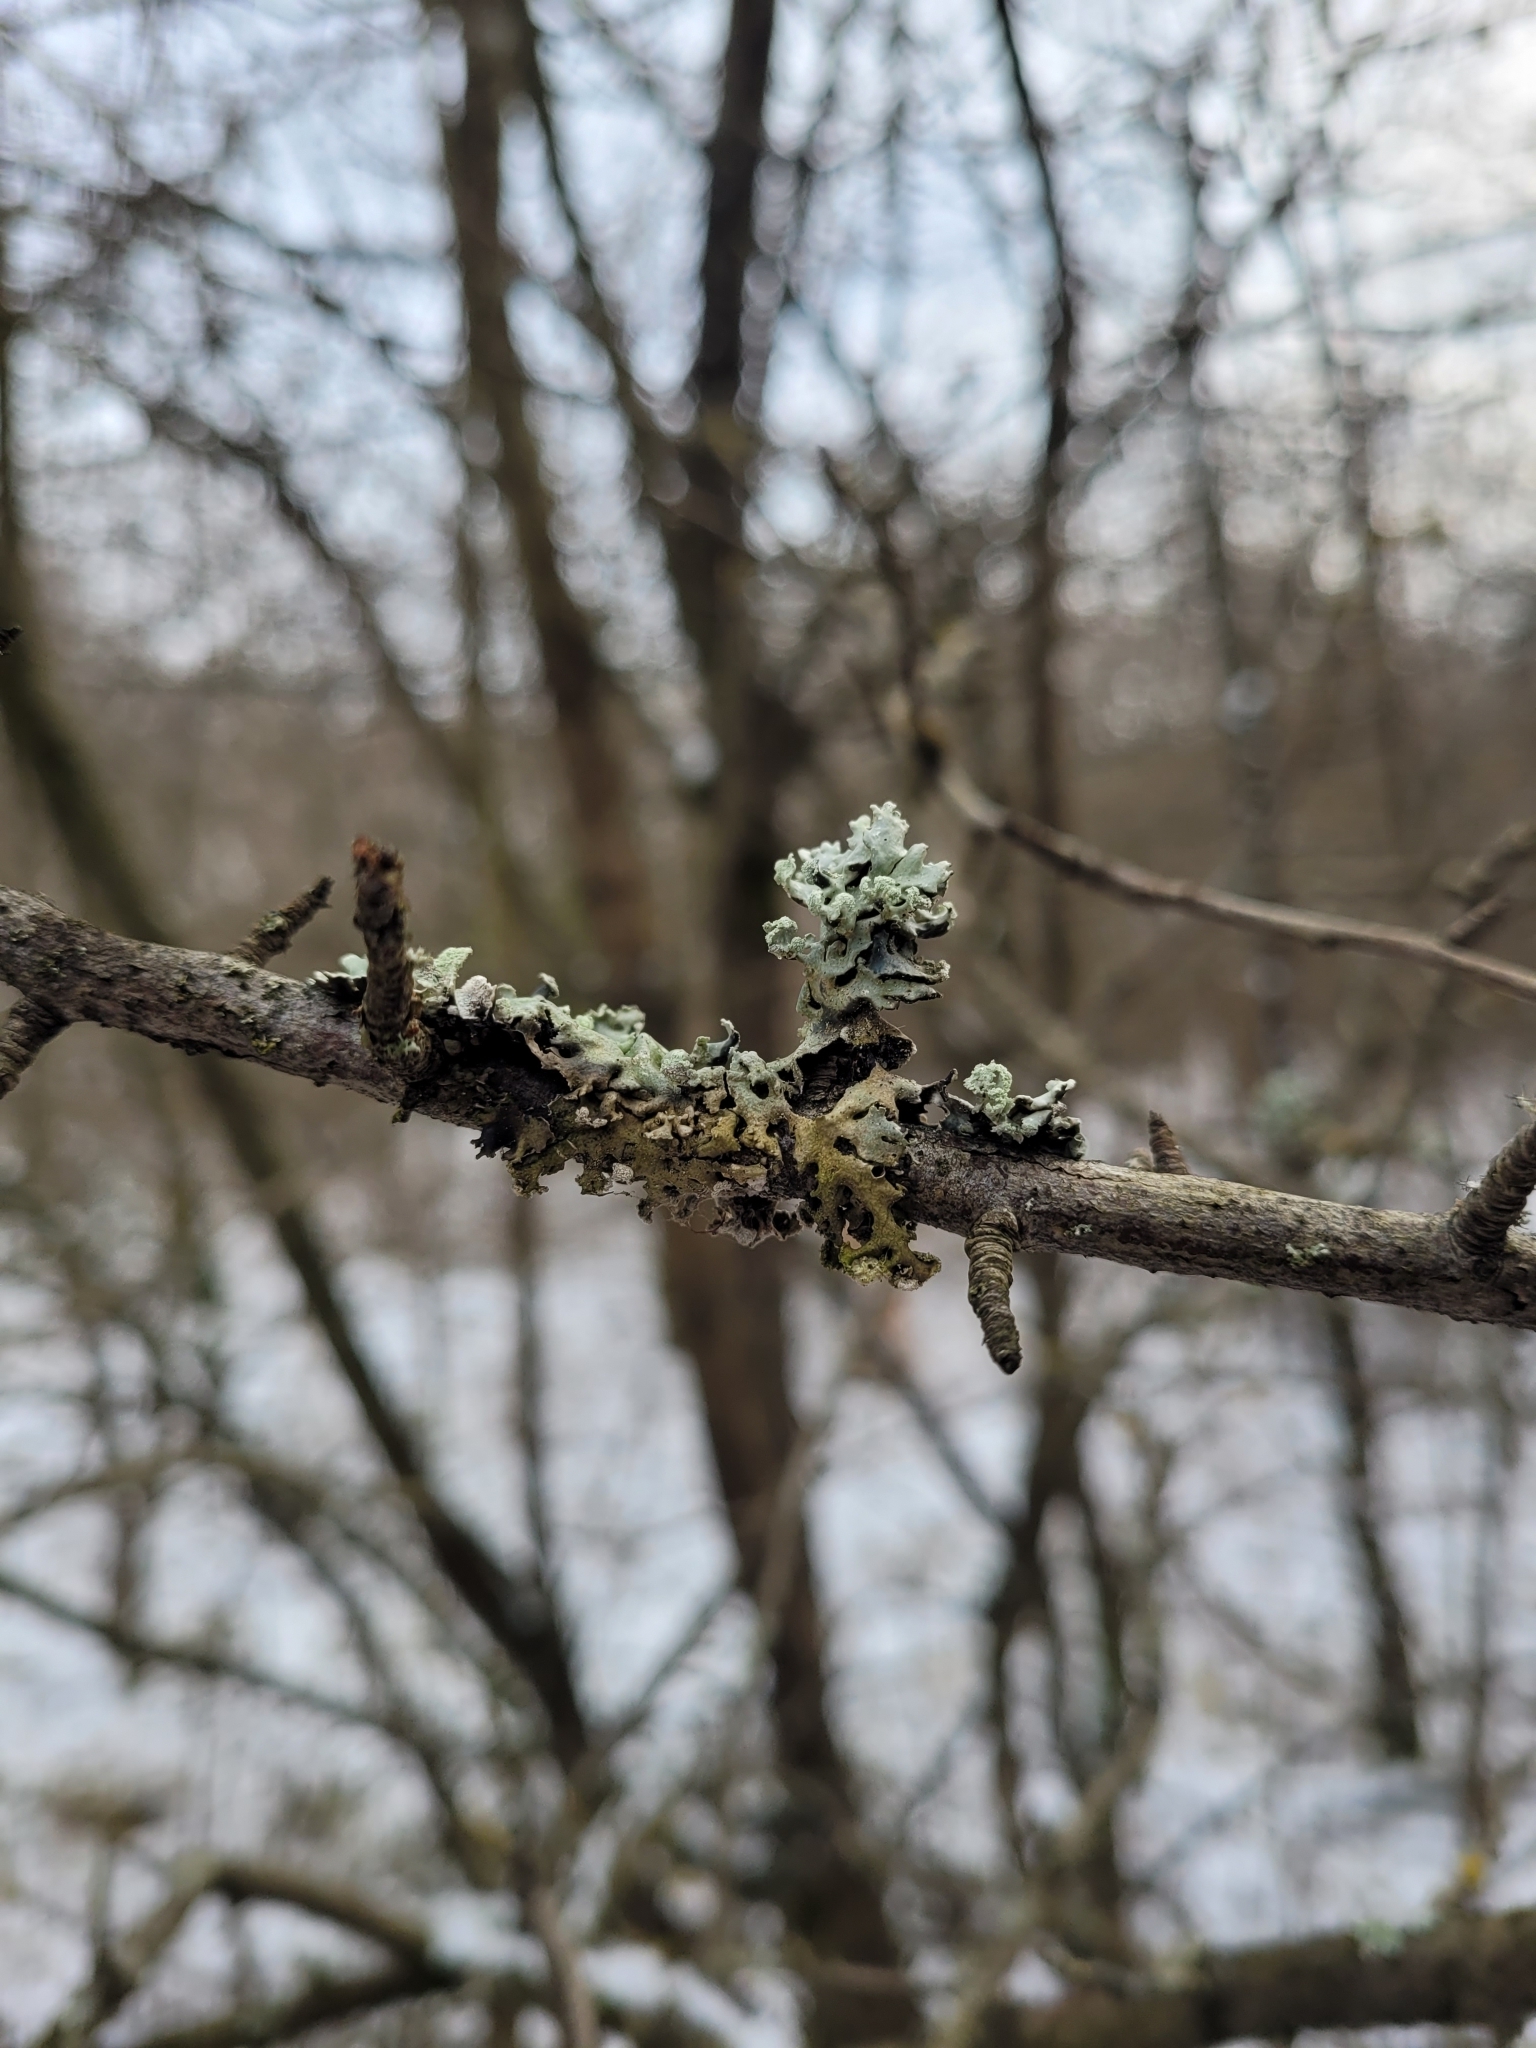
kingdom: Fungi
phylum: Ascomycota
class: Lecanoromycetes
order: Lecanorales
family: Parmeliaceae
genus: Hypogymnia
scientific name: Hypogymnia physodes
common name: Dark crottle
